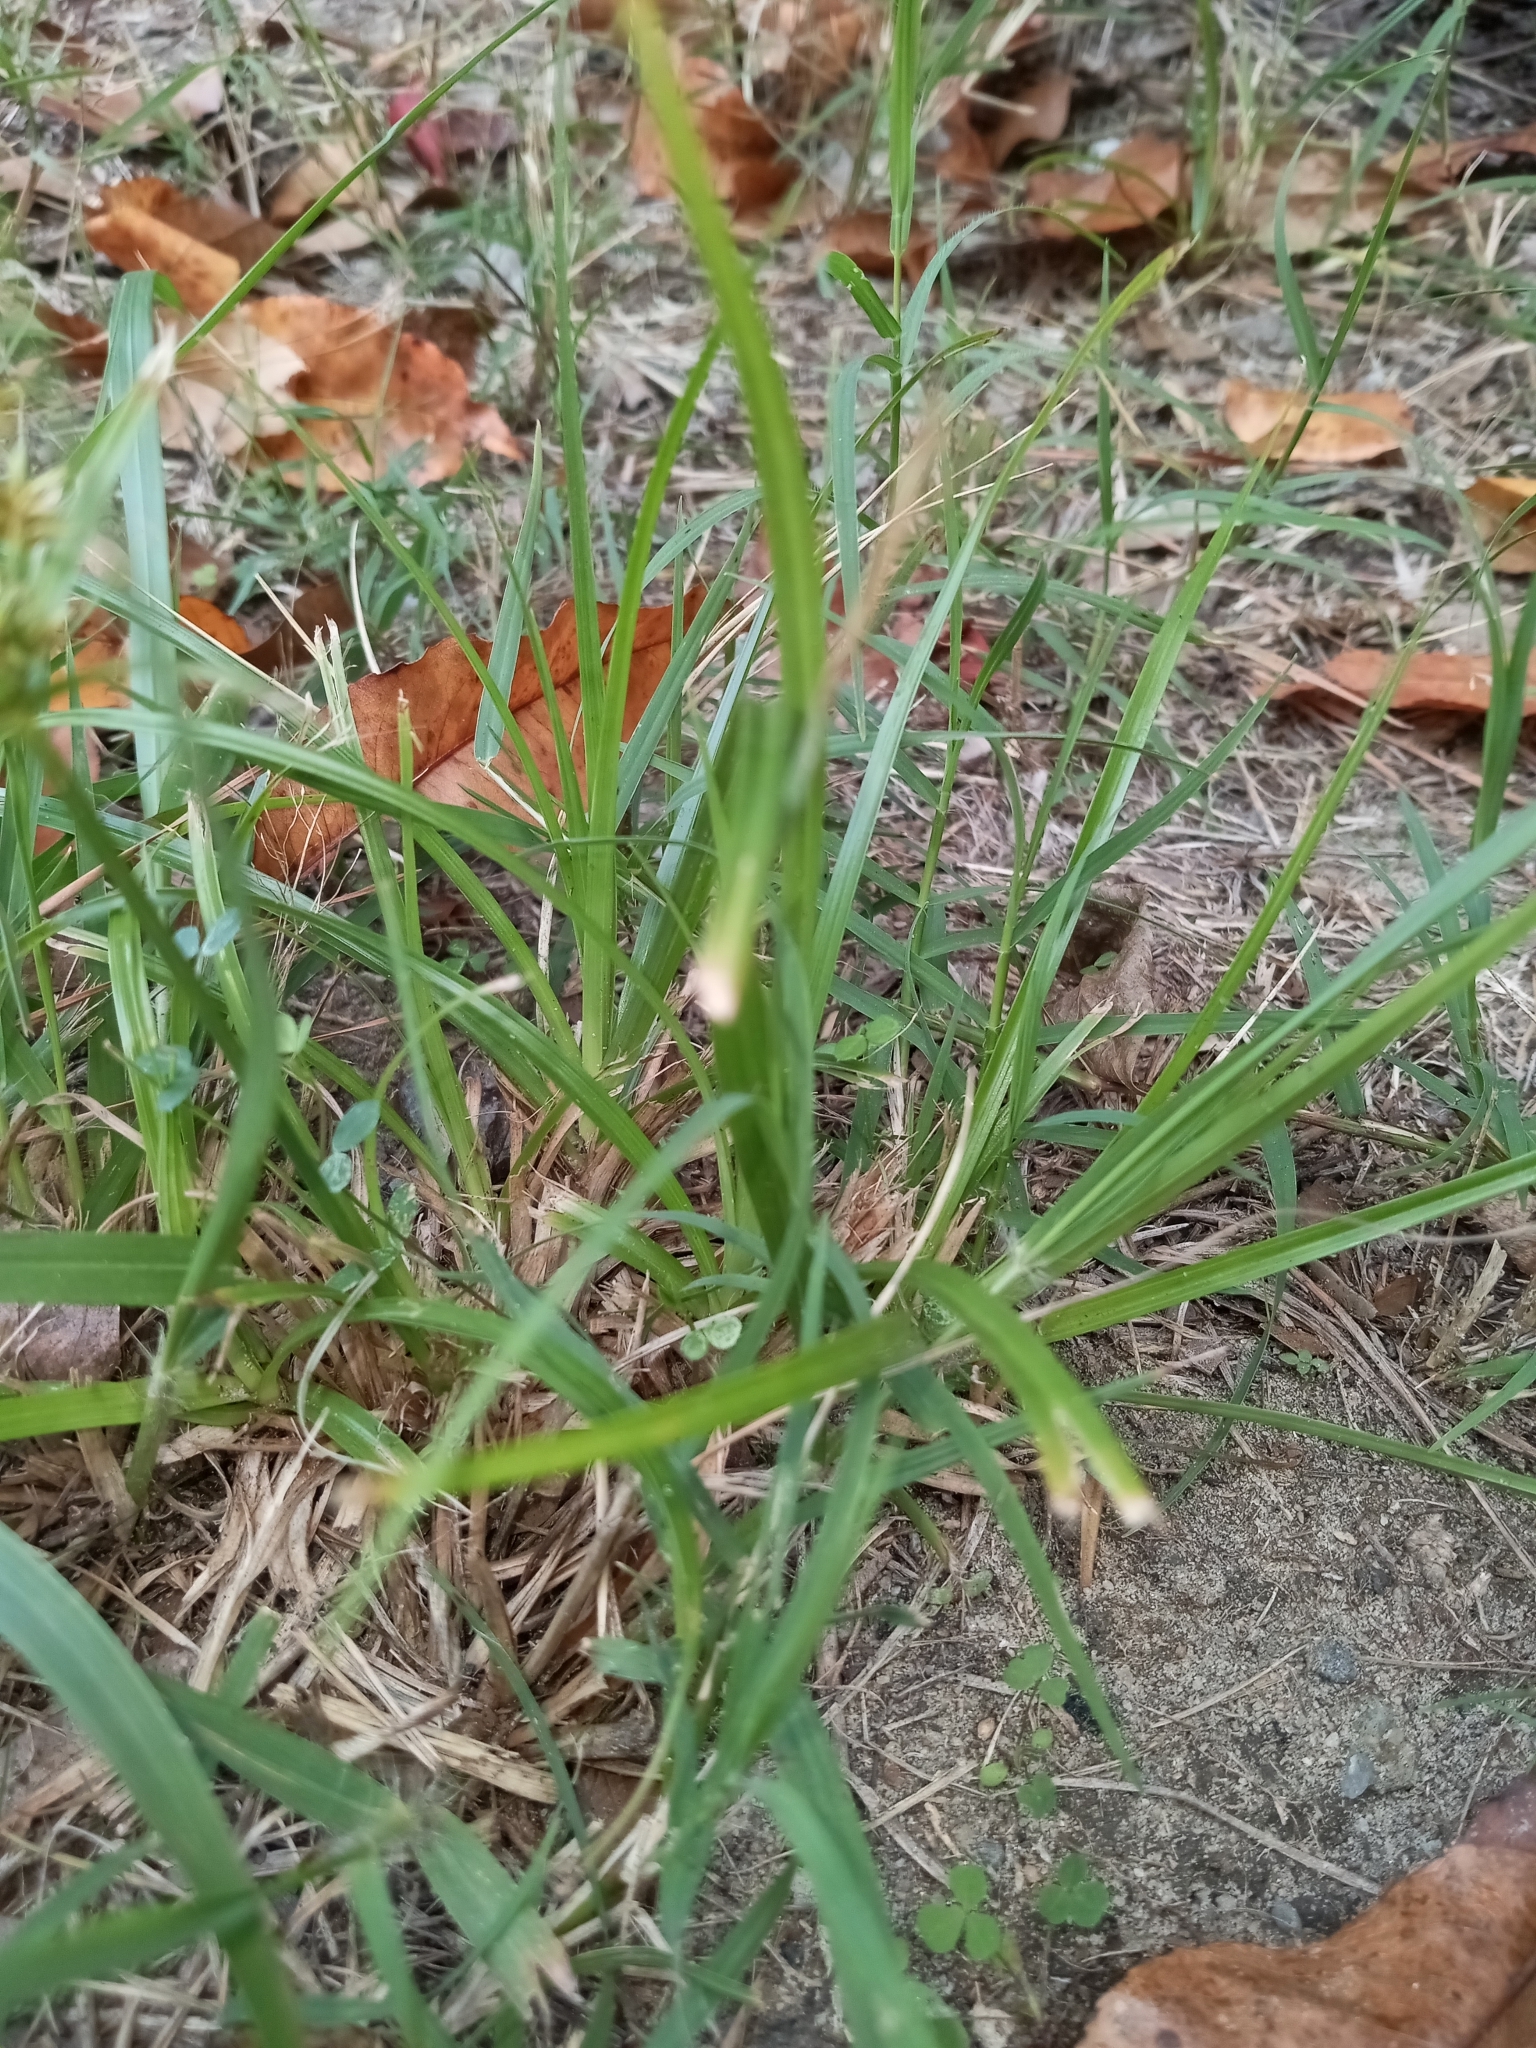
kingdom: Plantae
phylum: Tracheophyta
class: Liliopsida
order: Poales
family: Cyperaceae
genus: Cyperus
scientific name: Cyperus croceus
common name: Baldwin's flatsedge
